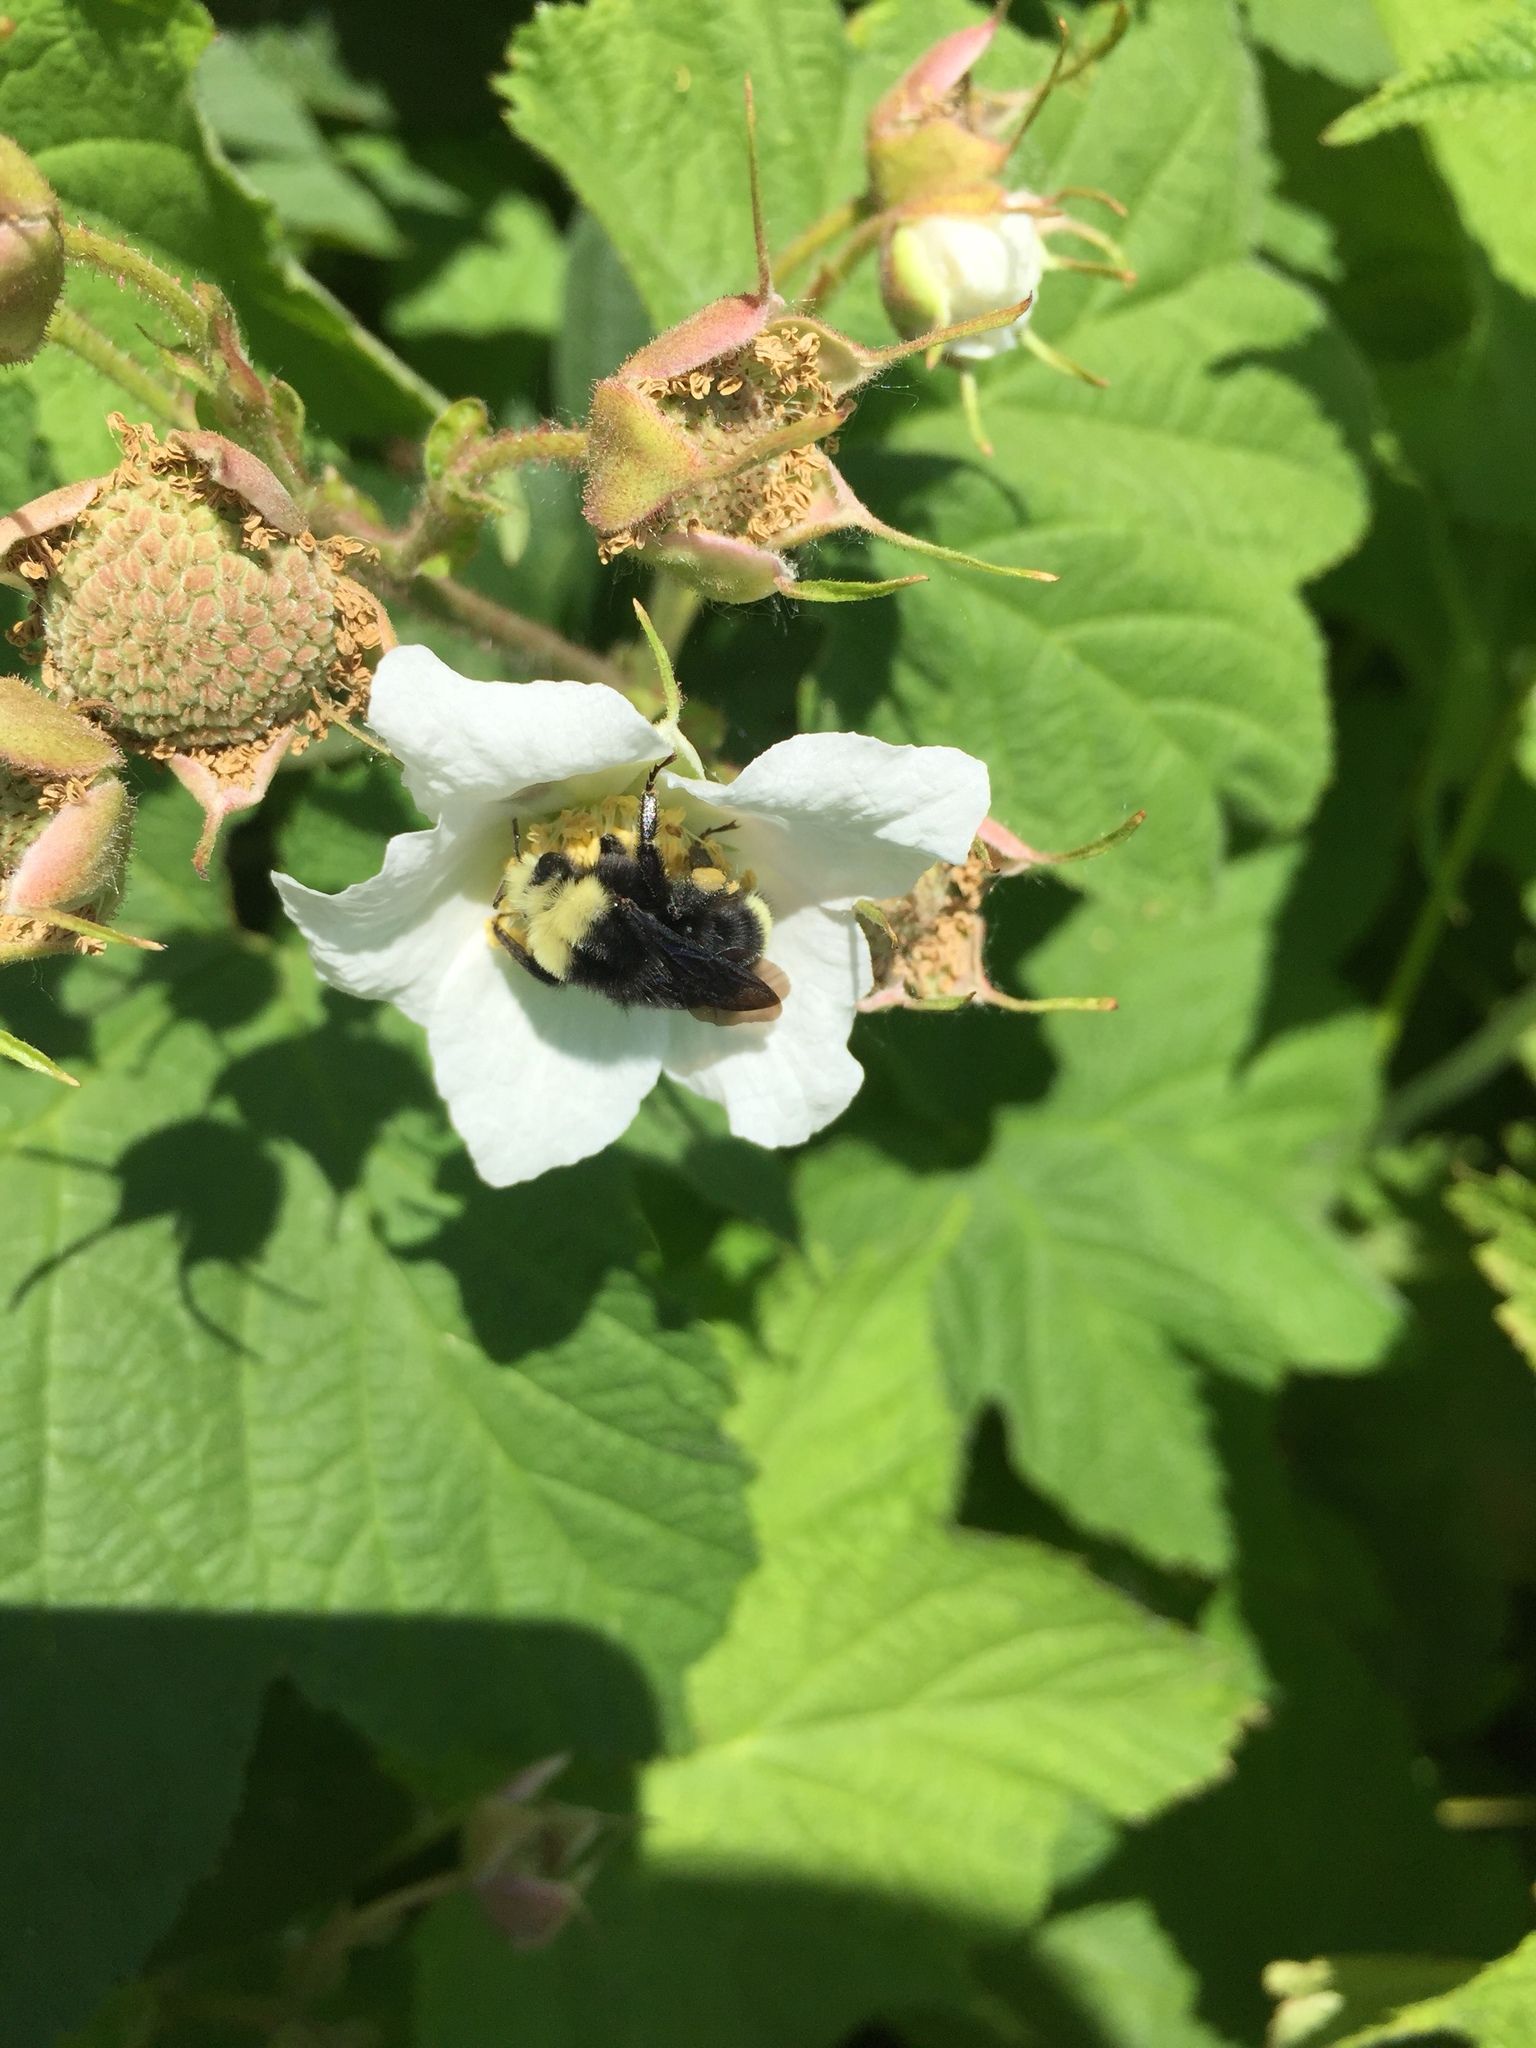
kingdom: Animalia
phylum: Arthropoda
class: Insecta
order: Hymenoptera
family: Apidae
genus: Bombus
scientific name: Bombus vosnesenskii
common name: Vosnesensky bumble bee
